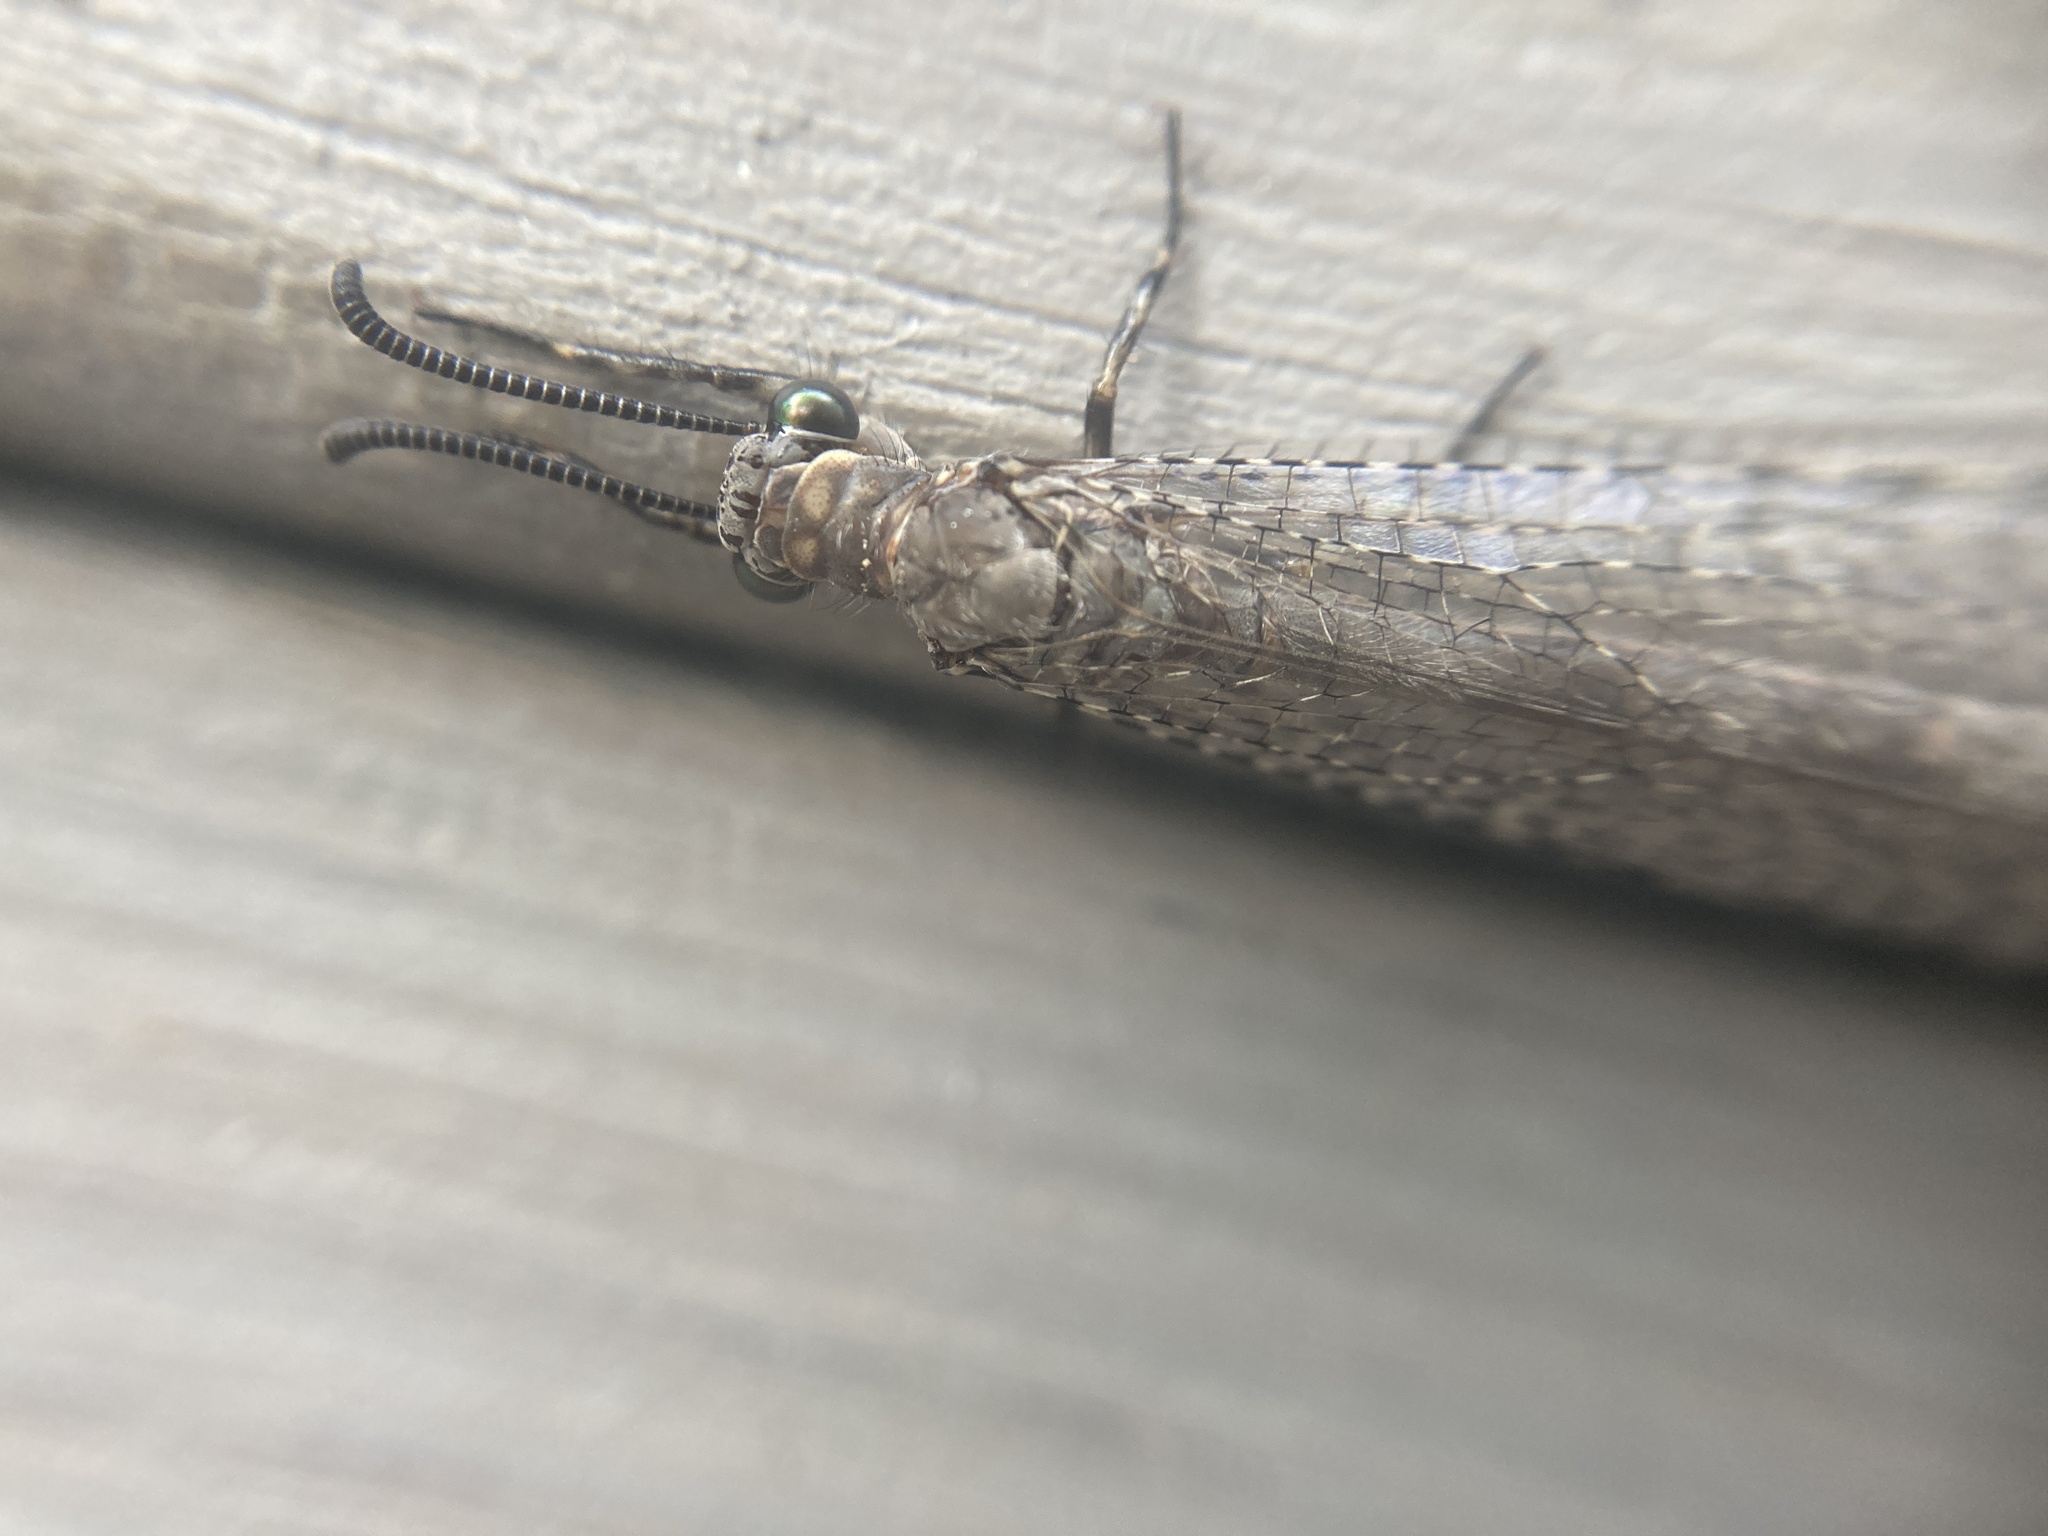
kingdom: Animalia
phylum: Arthropoda
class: Insecta
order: Neuroptera
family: Myrmeleontidae
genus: Myrmeleon
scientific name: Myrmeleon immaculatus
